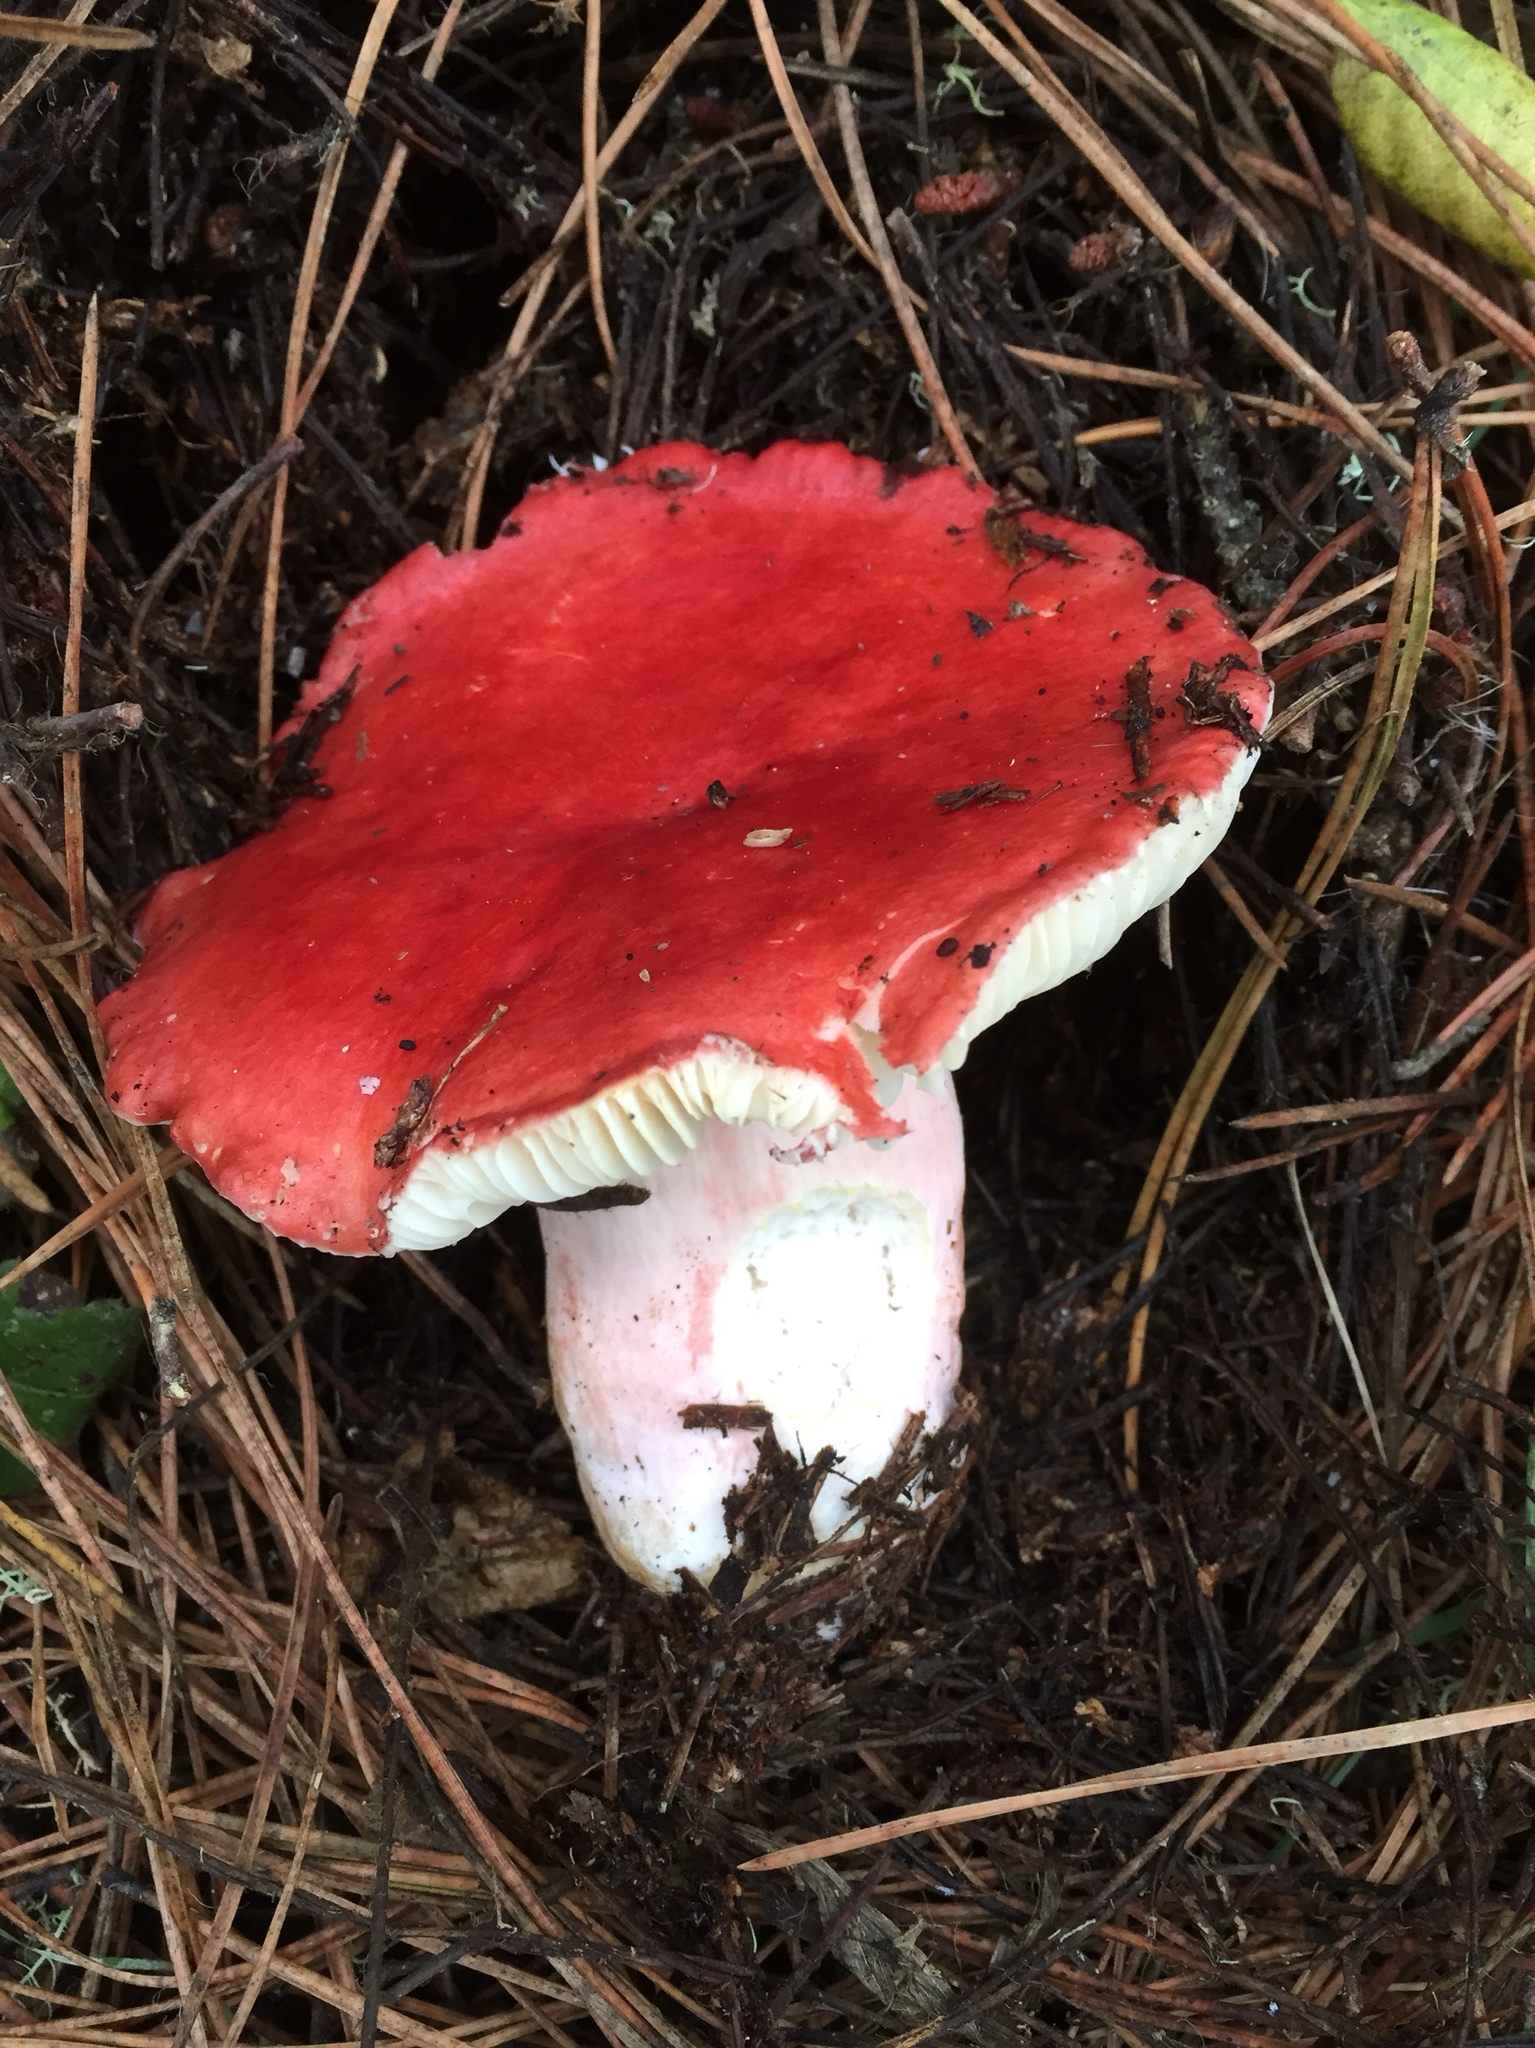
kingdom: Fungi
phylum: Basidiomycota
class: Agaricomycetes
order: Russulales
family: Russulaceae
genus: Russula
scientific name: Russula rhodocephala
